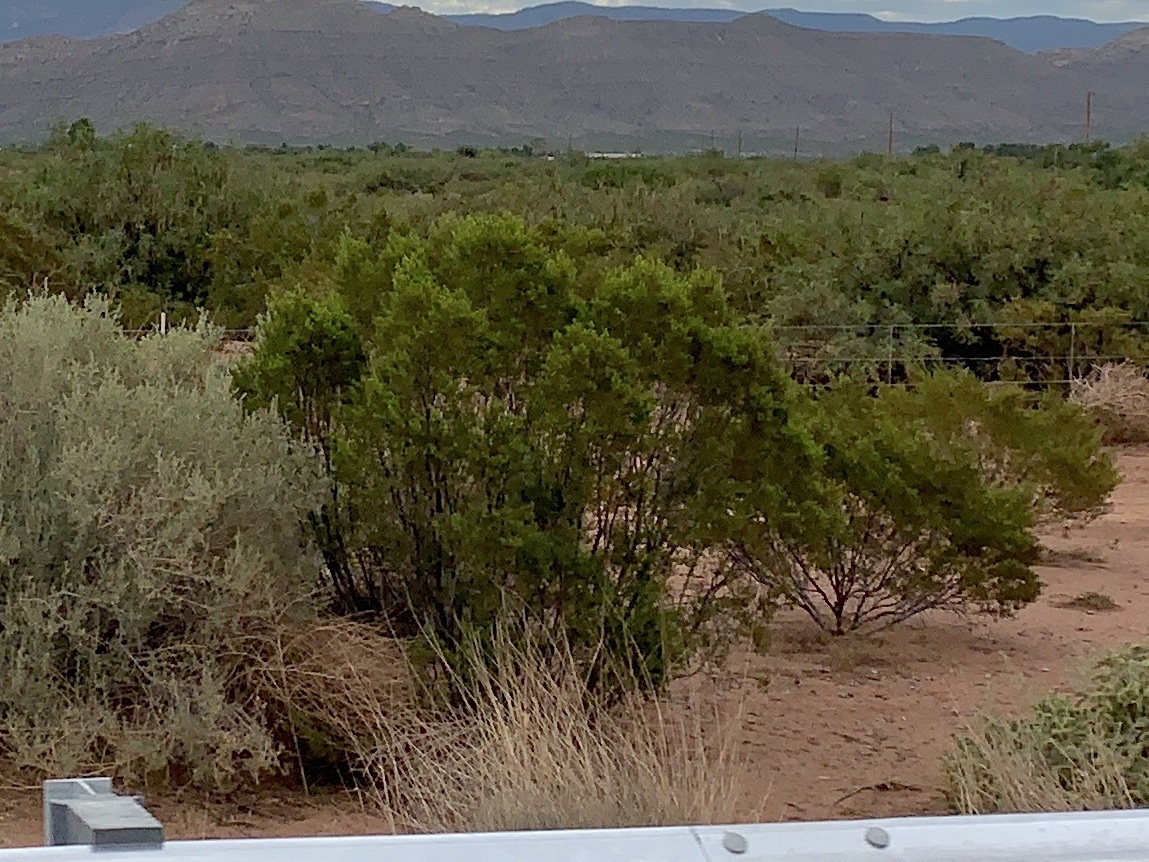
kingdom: Plantae
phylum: Tracheophyta
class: Magnoliopsida
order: Zygophyllales
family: Zygophyllaceae
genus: Larrea
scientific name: Larrea tridentata
